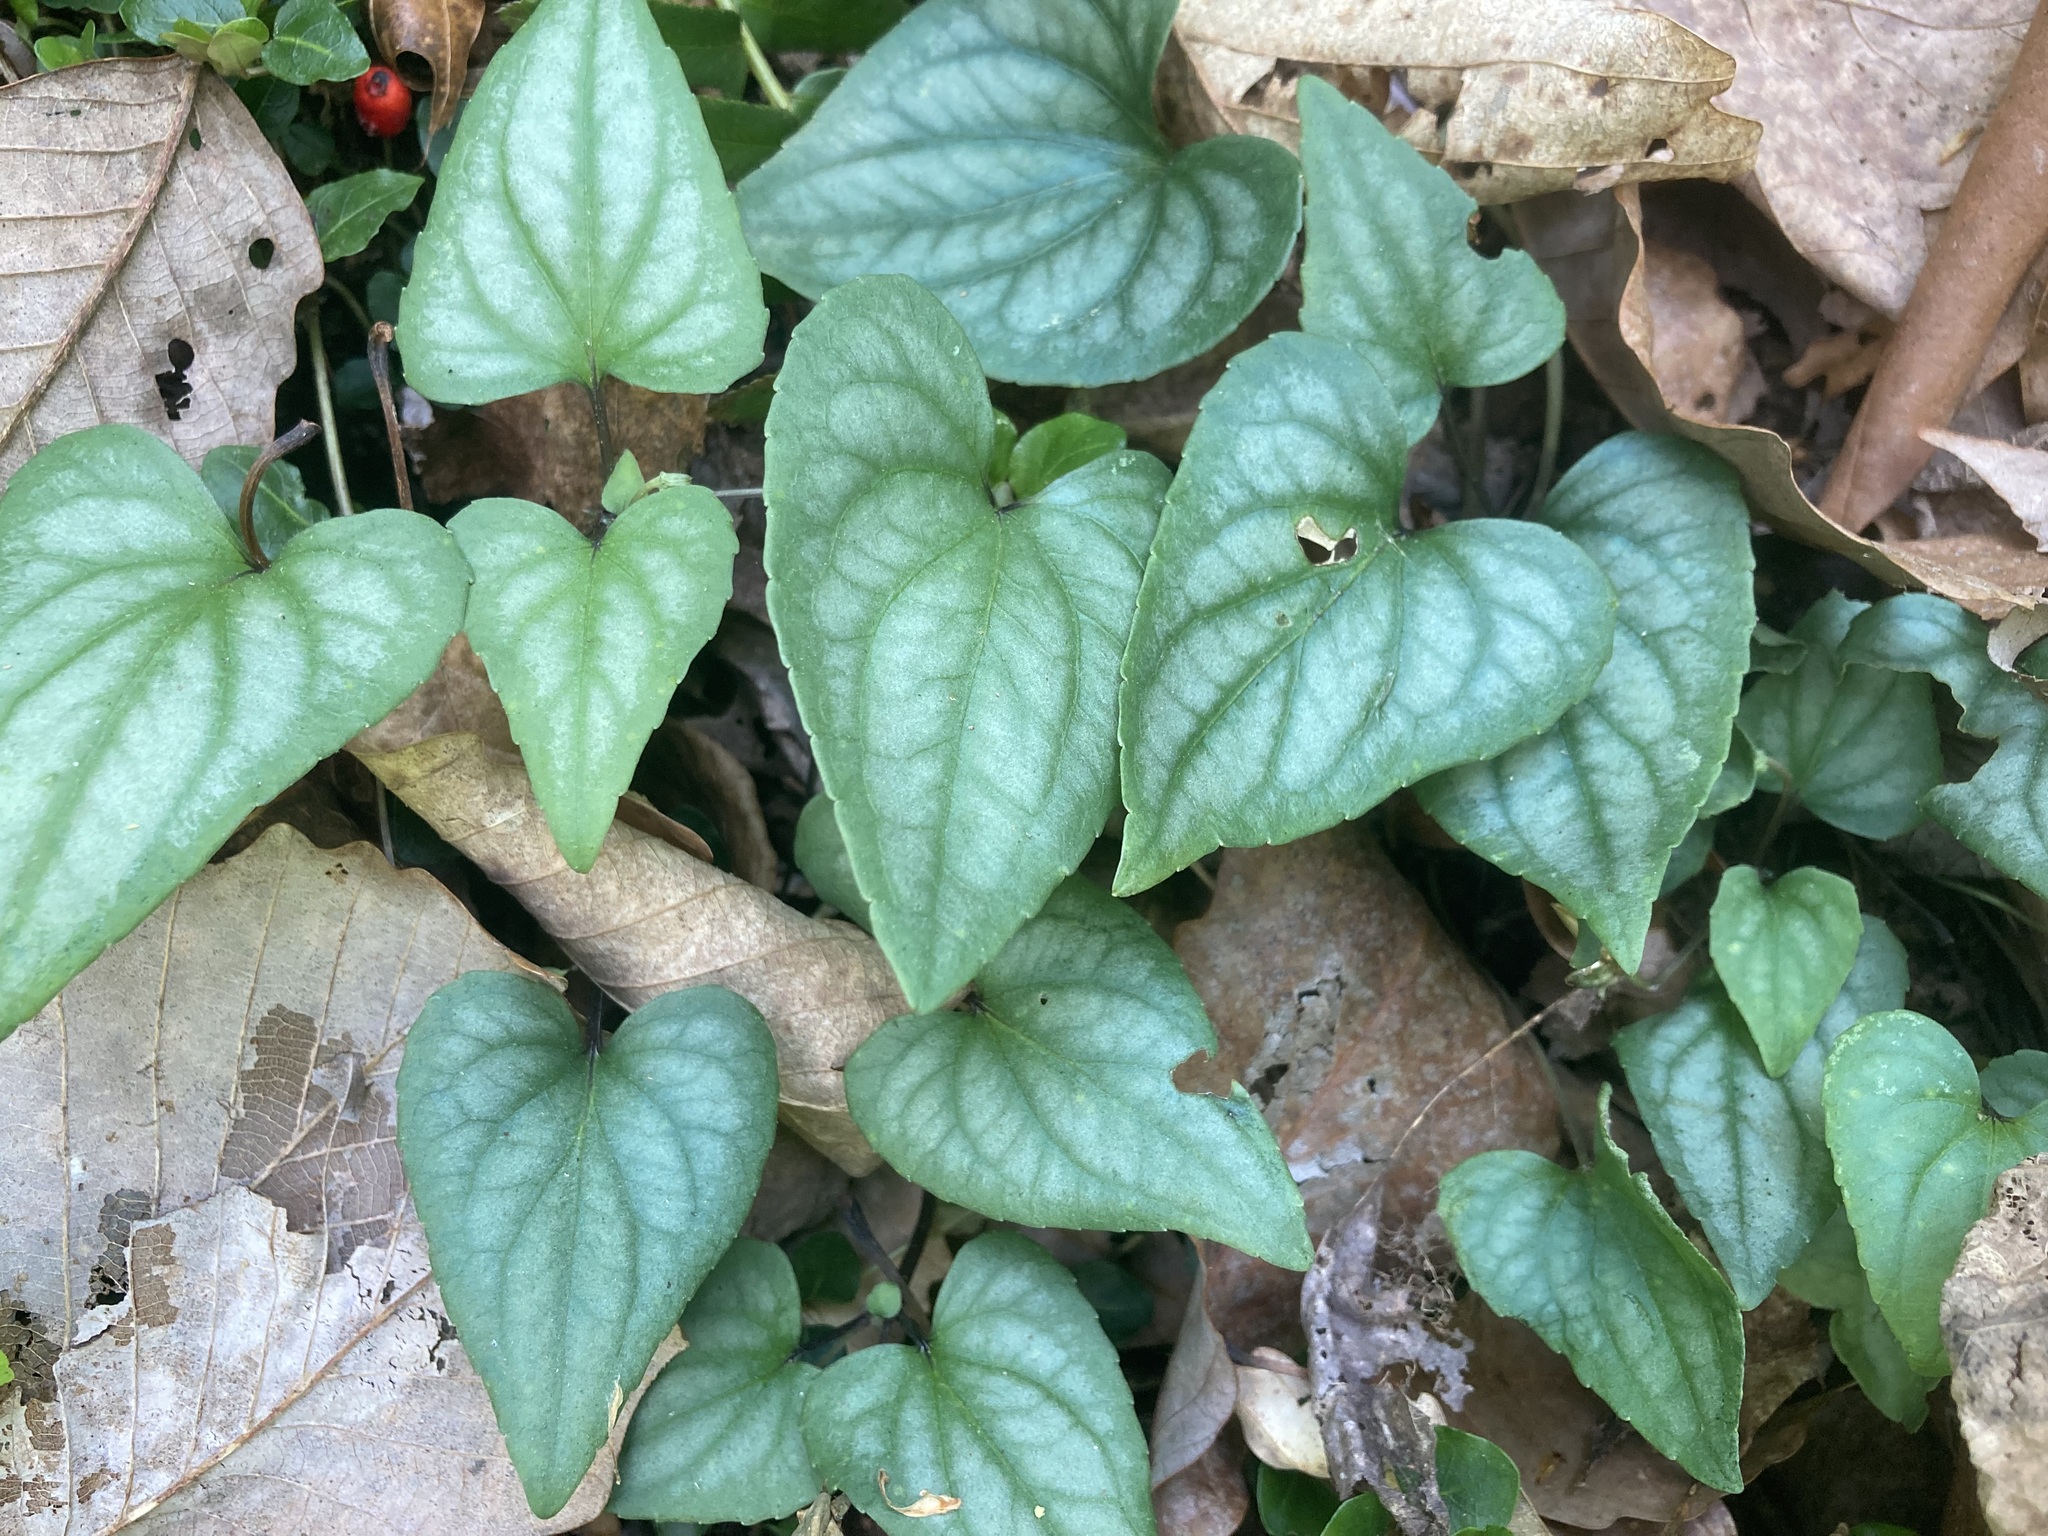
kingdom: Plantae
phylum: Tracheophyta
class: Magnoliopsida
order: Malpighiales
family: Violaceae
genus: Viola
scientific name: Viola hastata
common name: Spear-leaf violet
